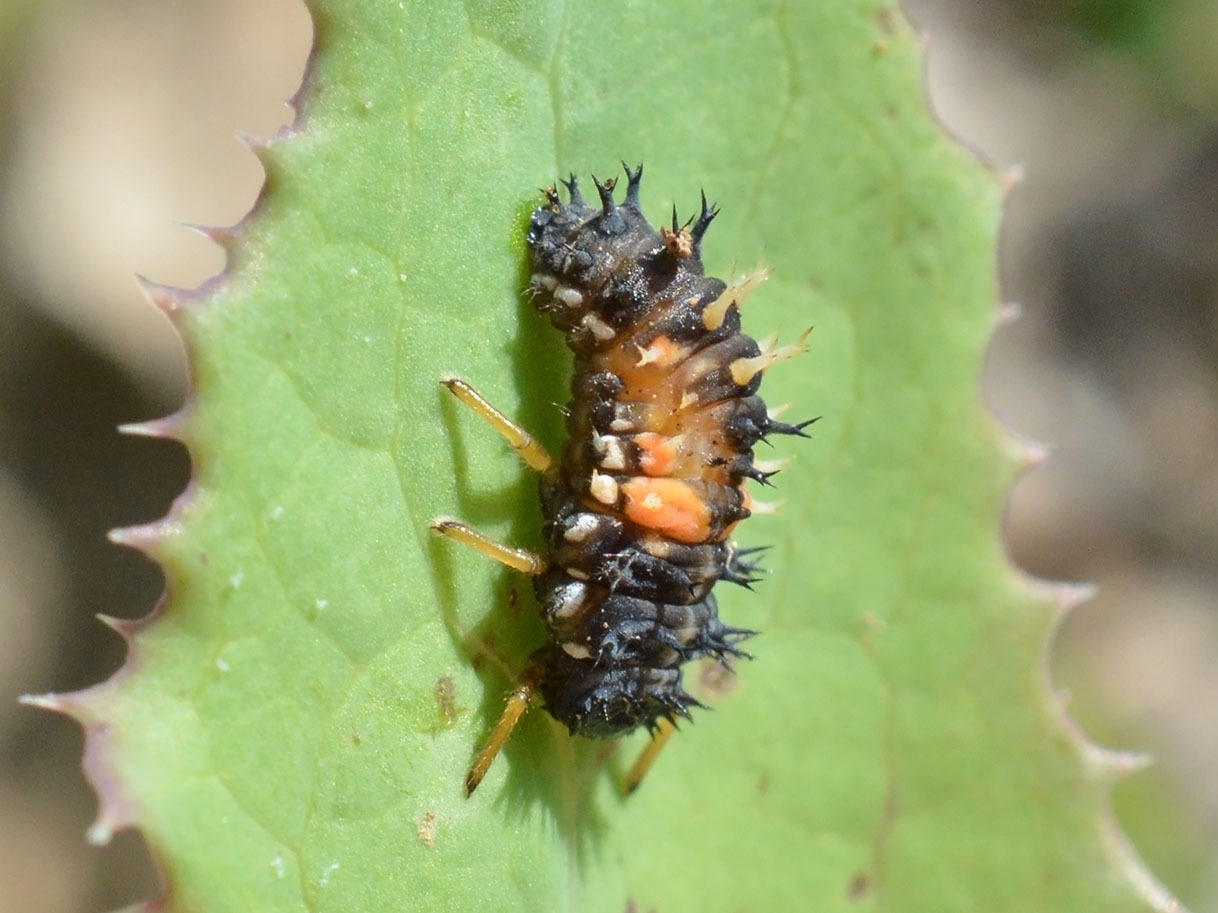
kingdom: Animalia
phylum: Arthropoda
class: Insecta
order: Coleoptera
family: Coccinellidae
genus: Harmonia
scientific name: Harmonia axyridis
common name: Harlequin ladybird
